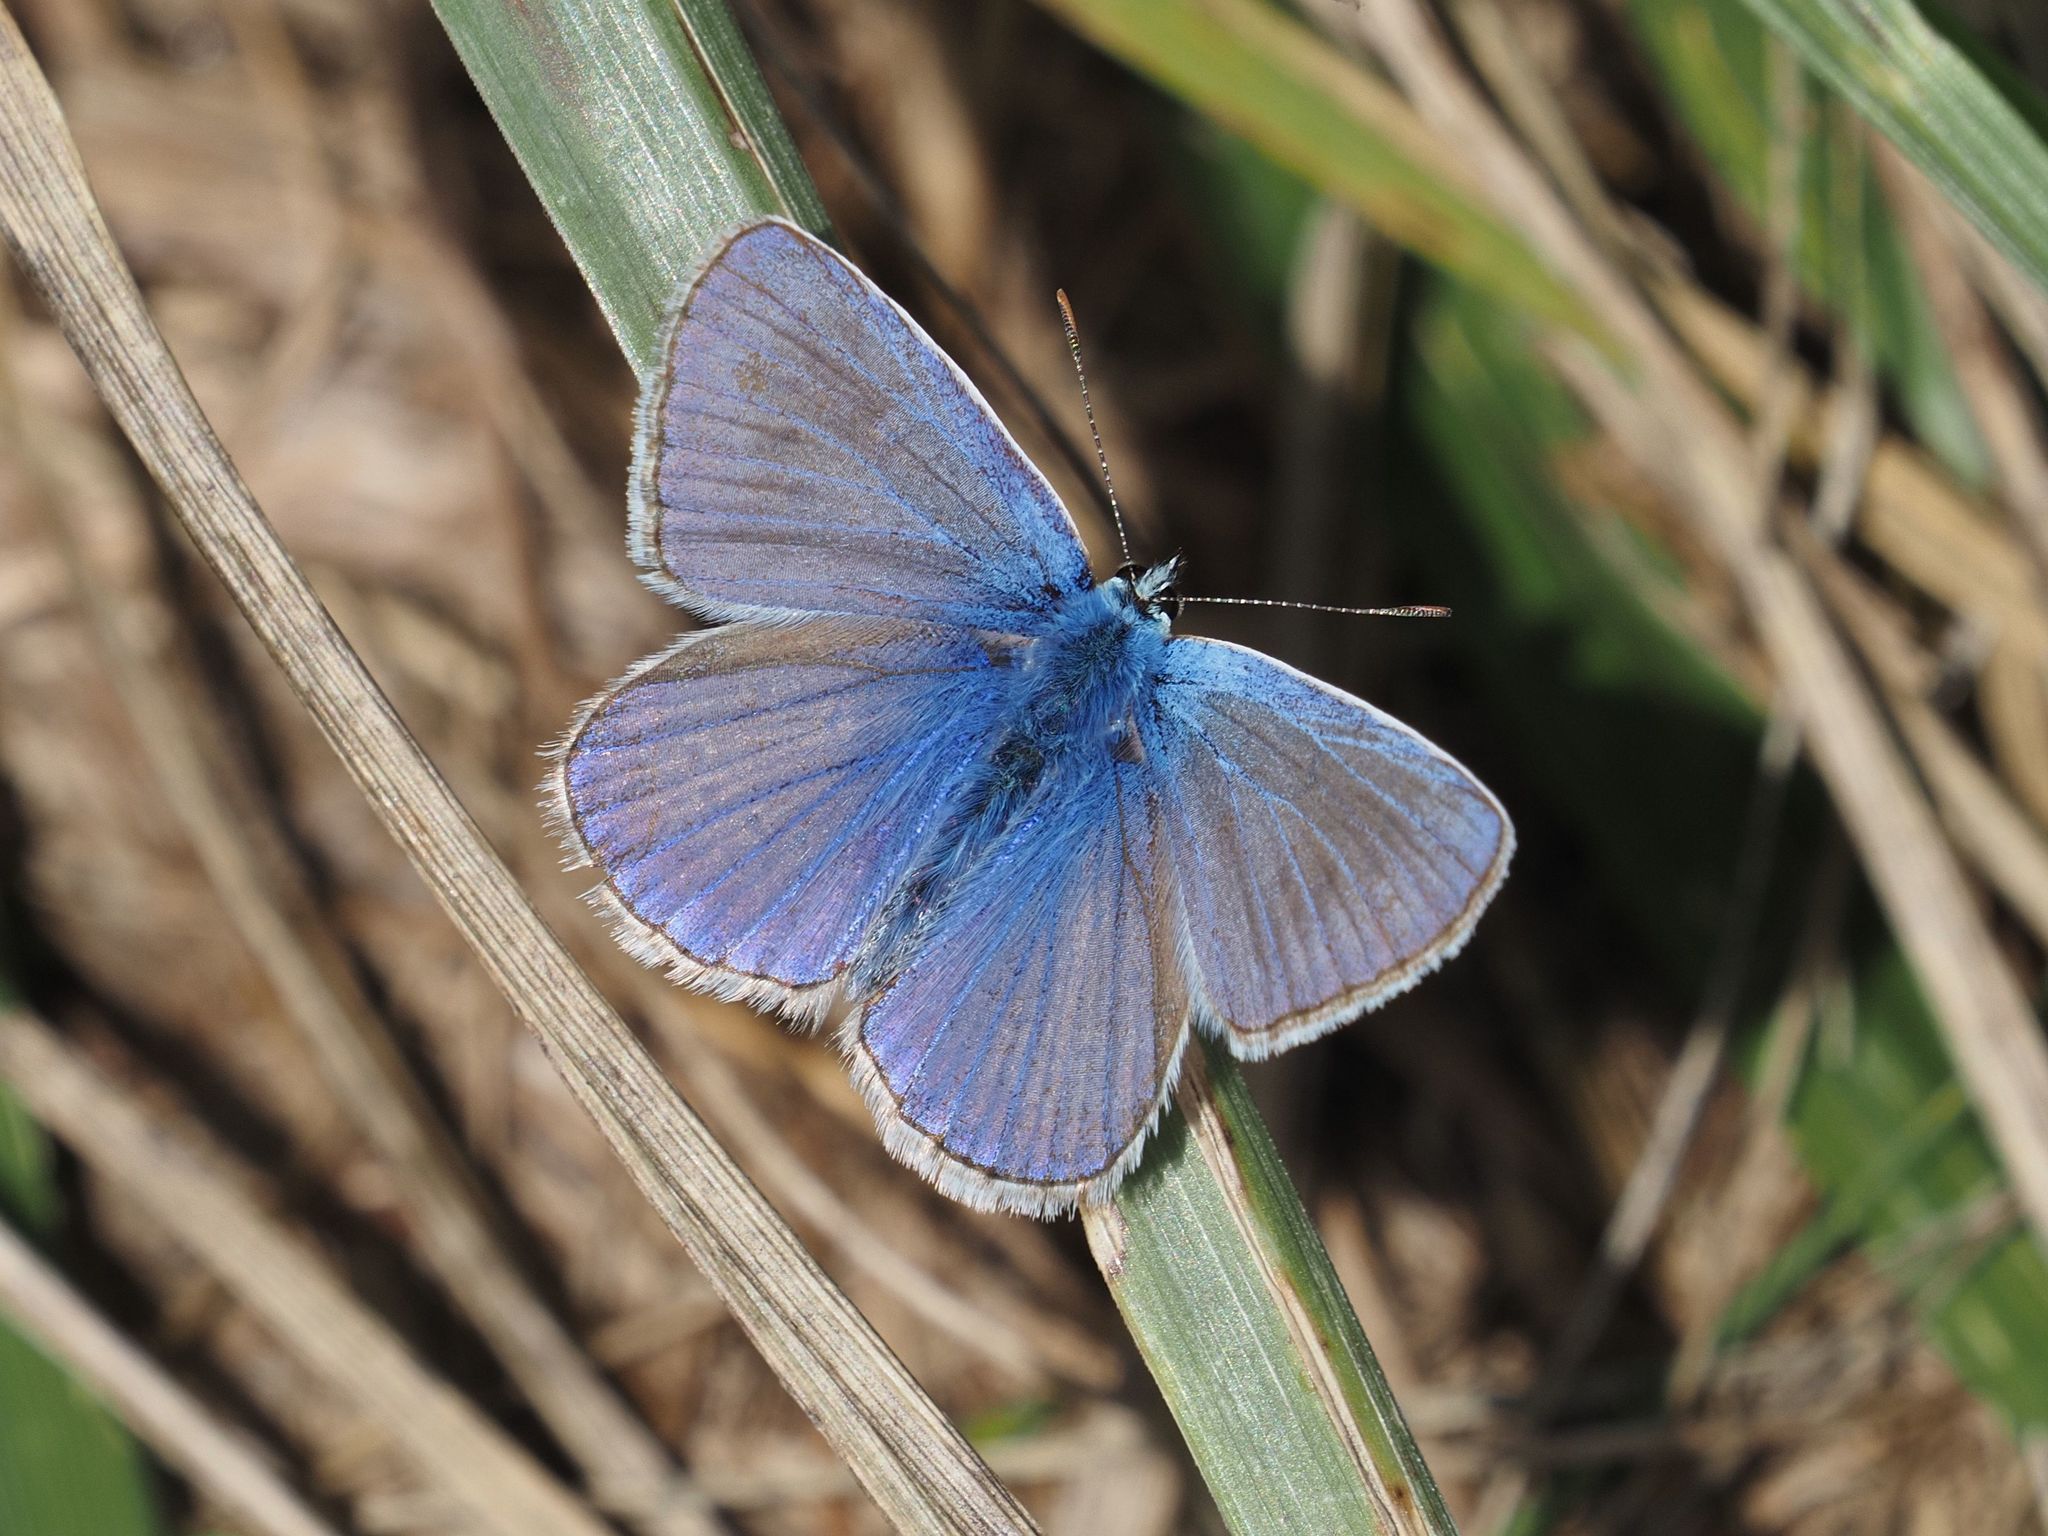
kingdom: Animalia
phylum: Arthropoda
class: Insecta
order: Lepidoptera
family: Lycaenidae
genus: Polyommatus
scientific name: Polyommatus icarus
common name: Common blue
